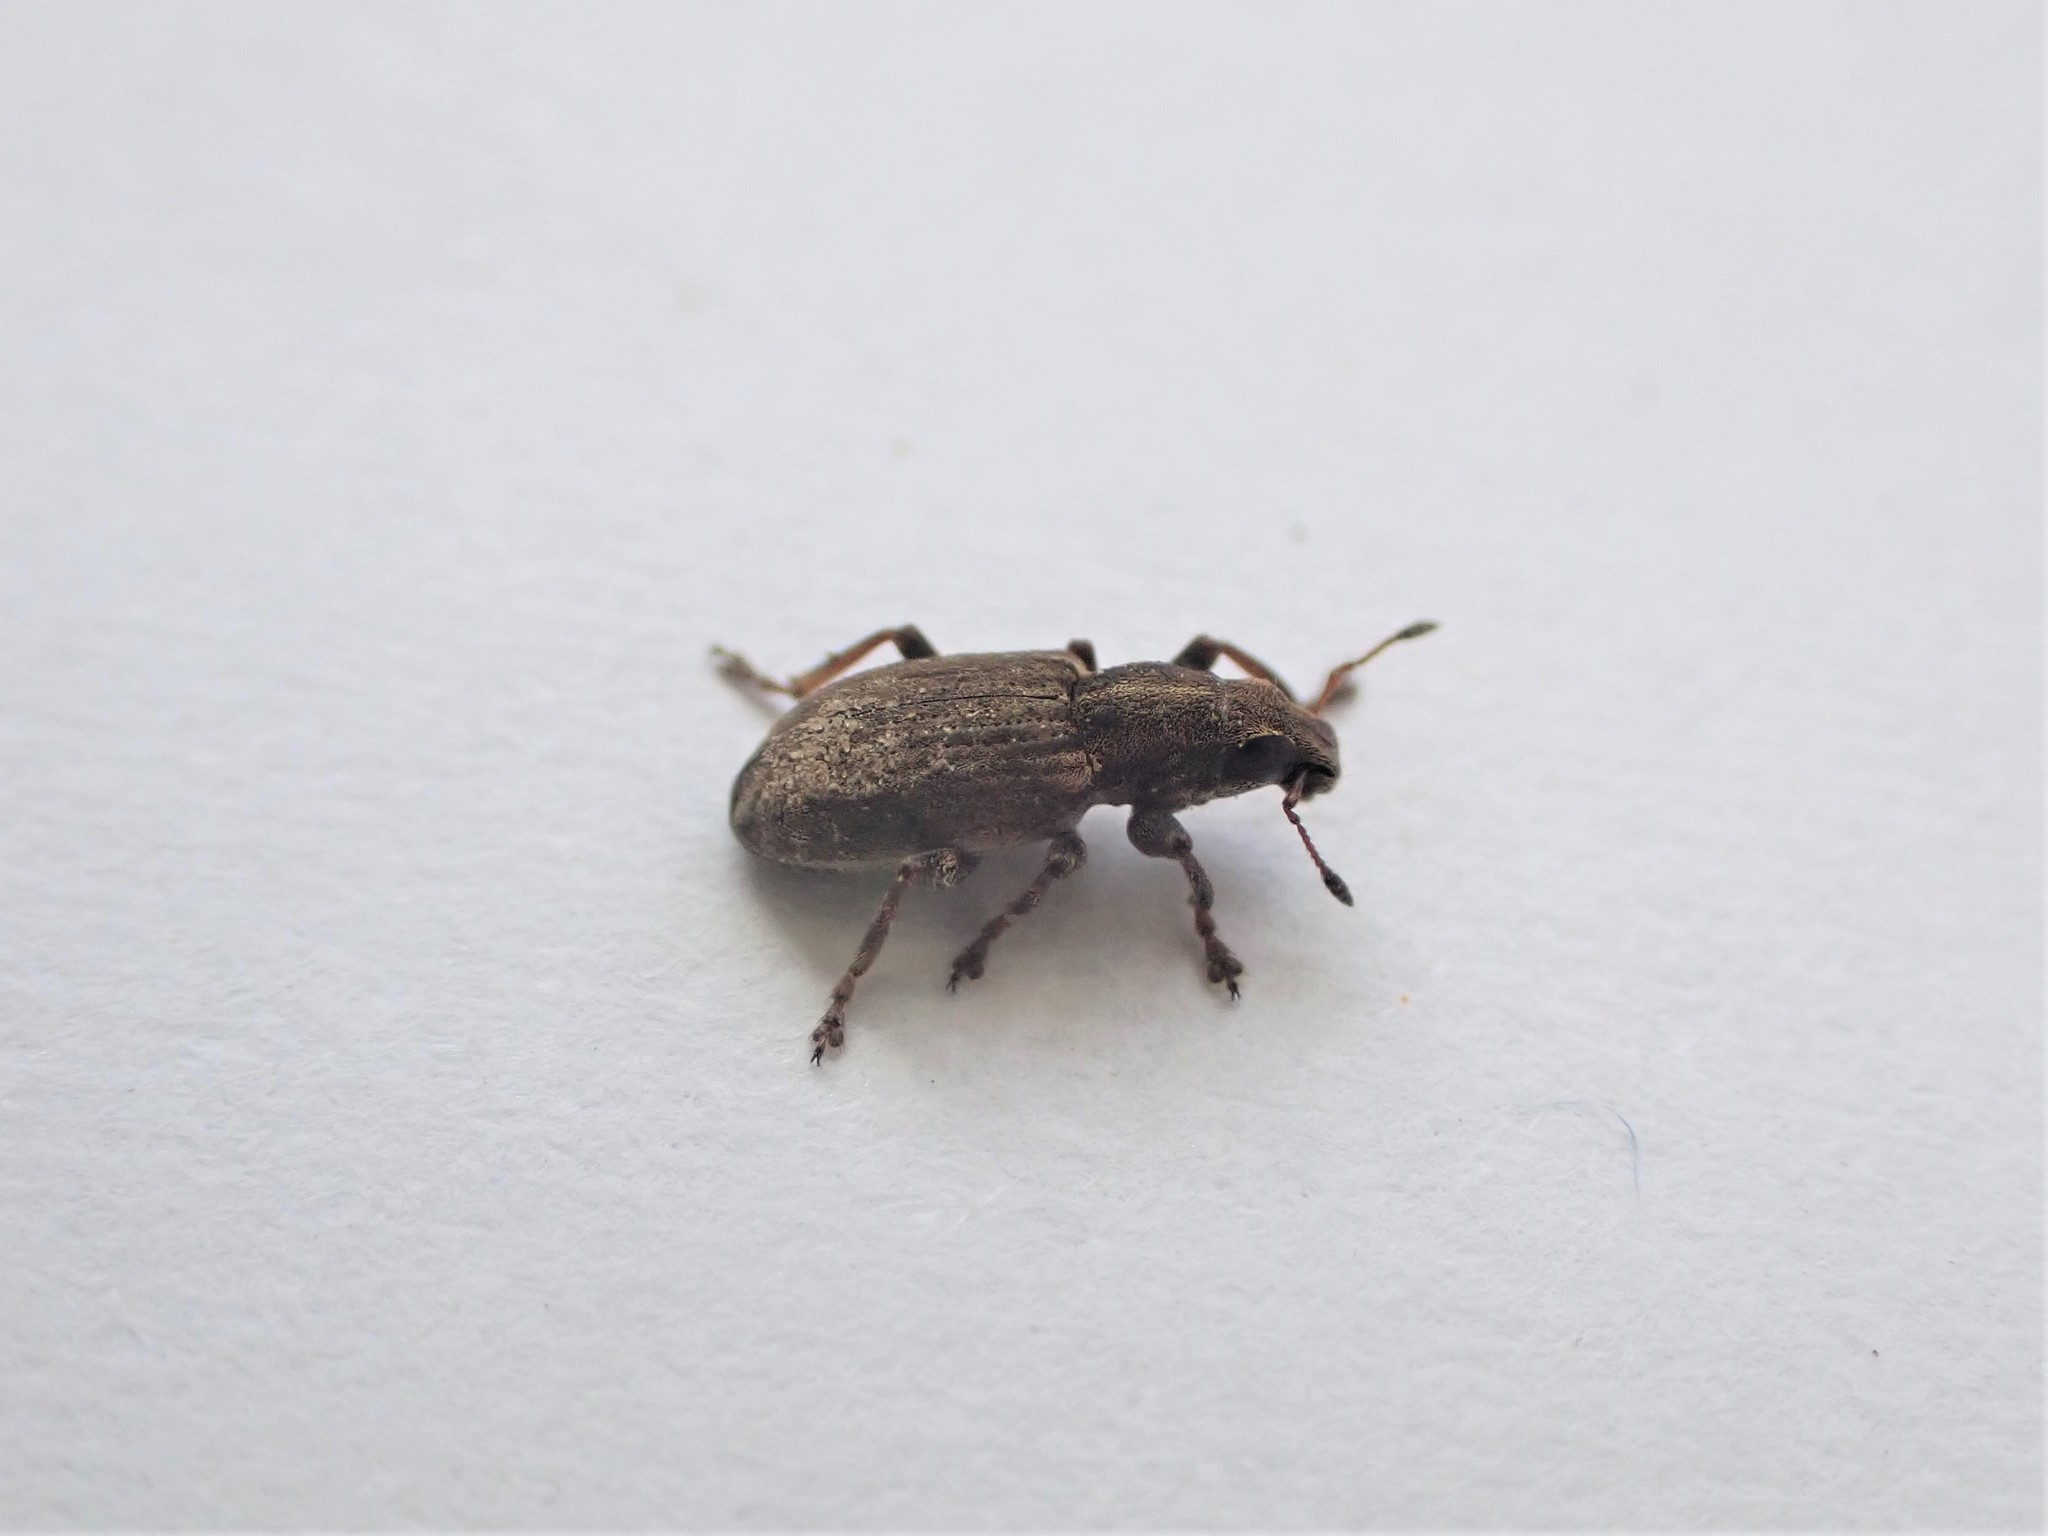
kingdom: Animalia
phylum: Arthropoda
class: Insecta
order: Coleoptera
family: Curculionidae
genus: Sitona
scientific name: Sitona obsoletus
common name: Weevil
